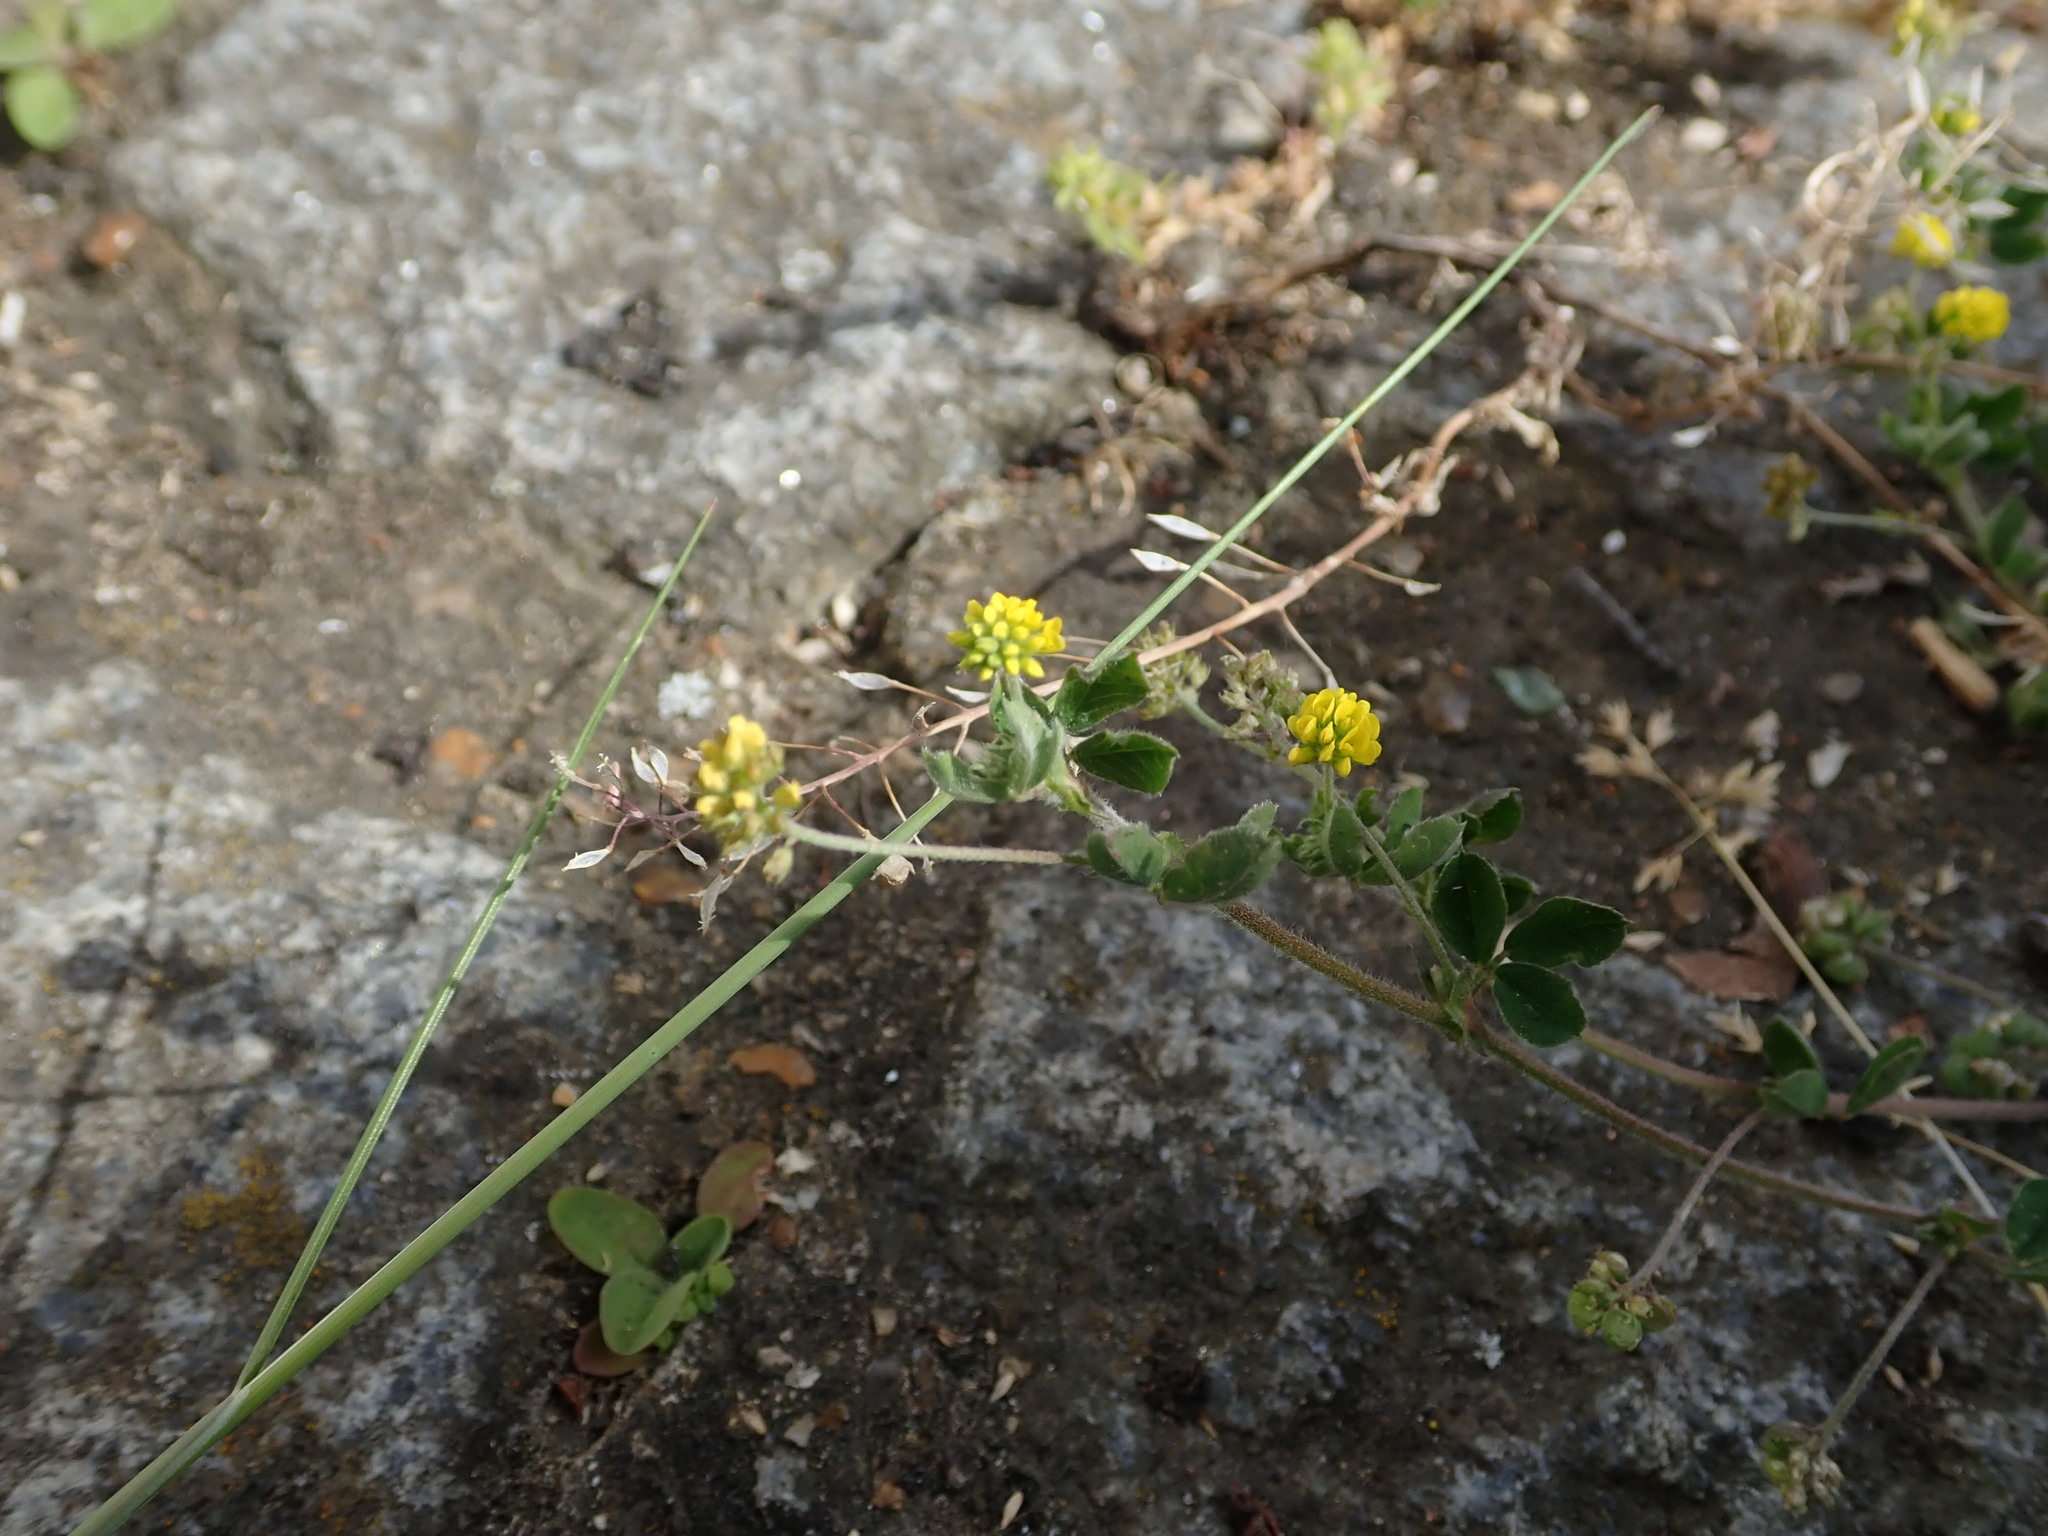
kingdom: Plantae
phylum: Tracheophyta
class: Magnoliopsida
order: Fabales
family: Fabaceae
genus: Medicago
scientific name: Medicago lupulina
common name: Black medick
